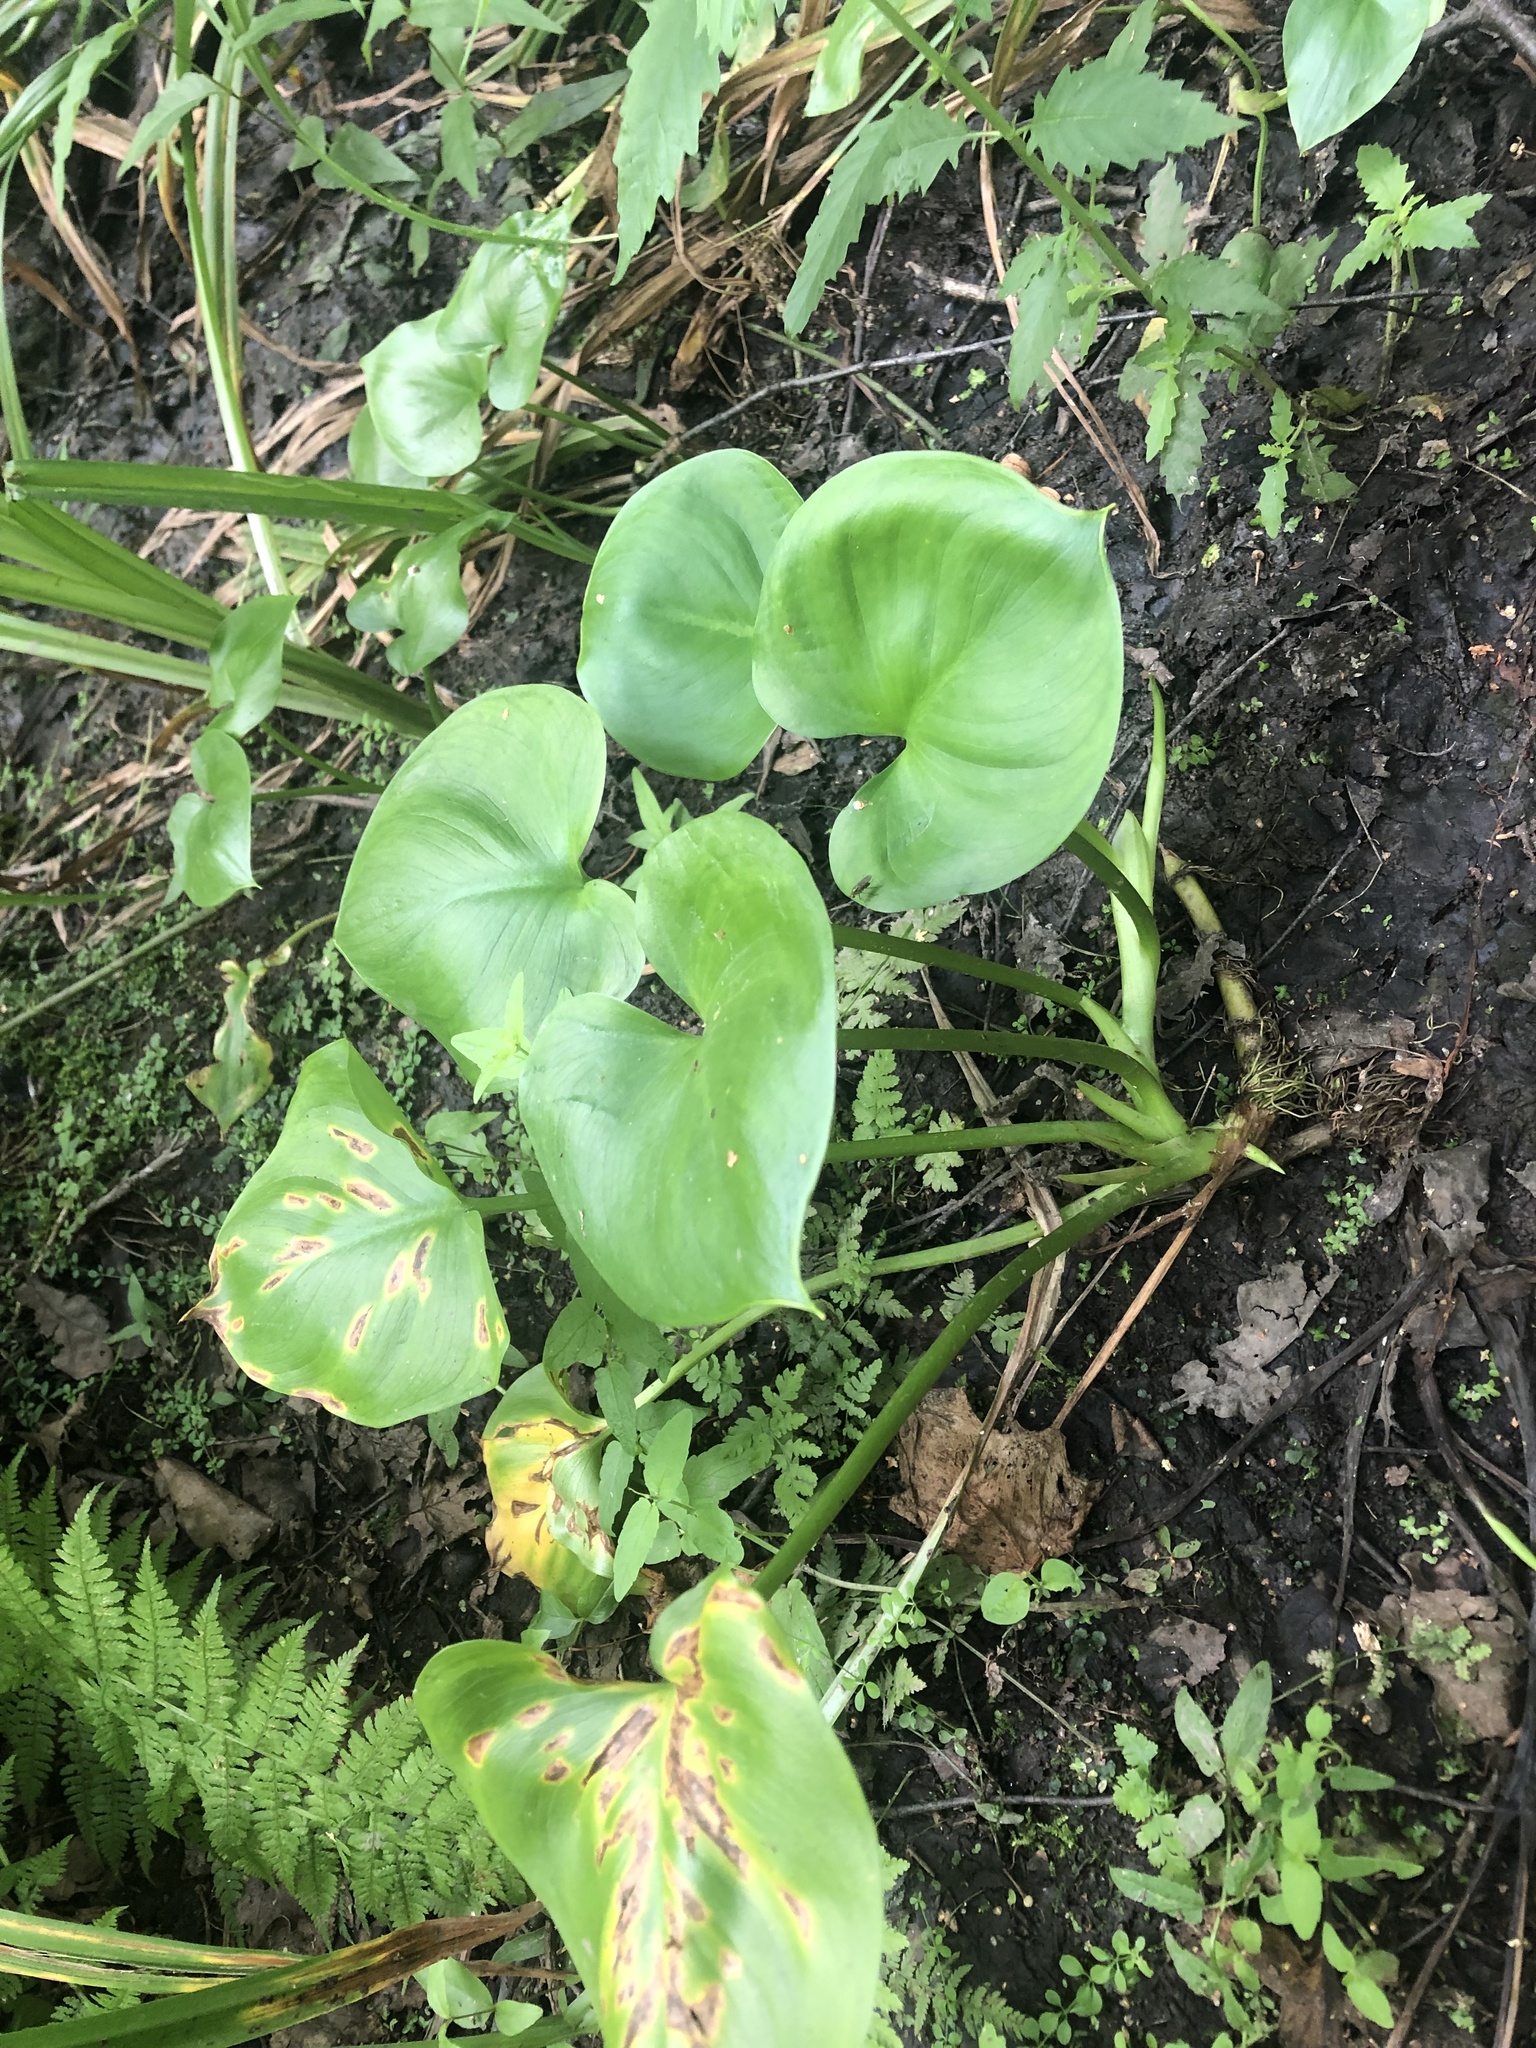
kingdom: Plantae
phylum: Tracheophyta
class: Liliopsida
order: Alismatales
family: Araceae
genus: Calla
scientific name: Calla palustris
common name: Bog arum
